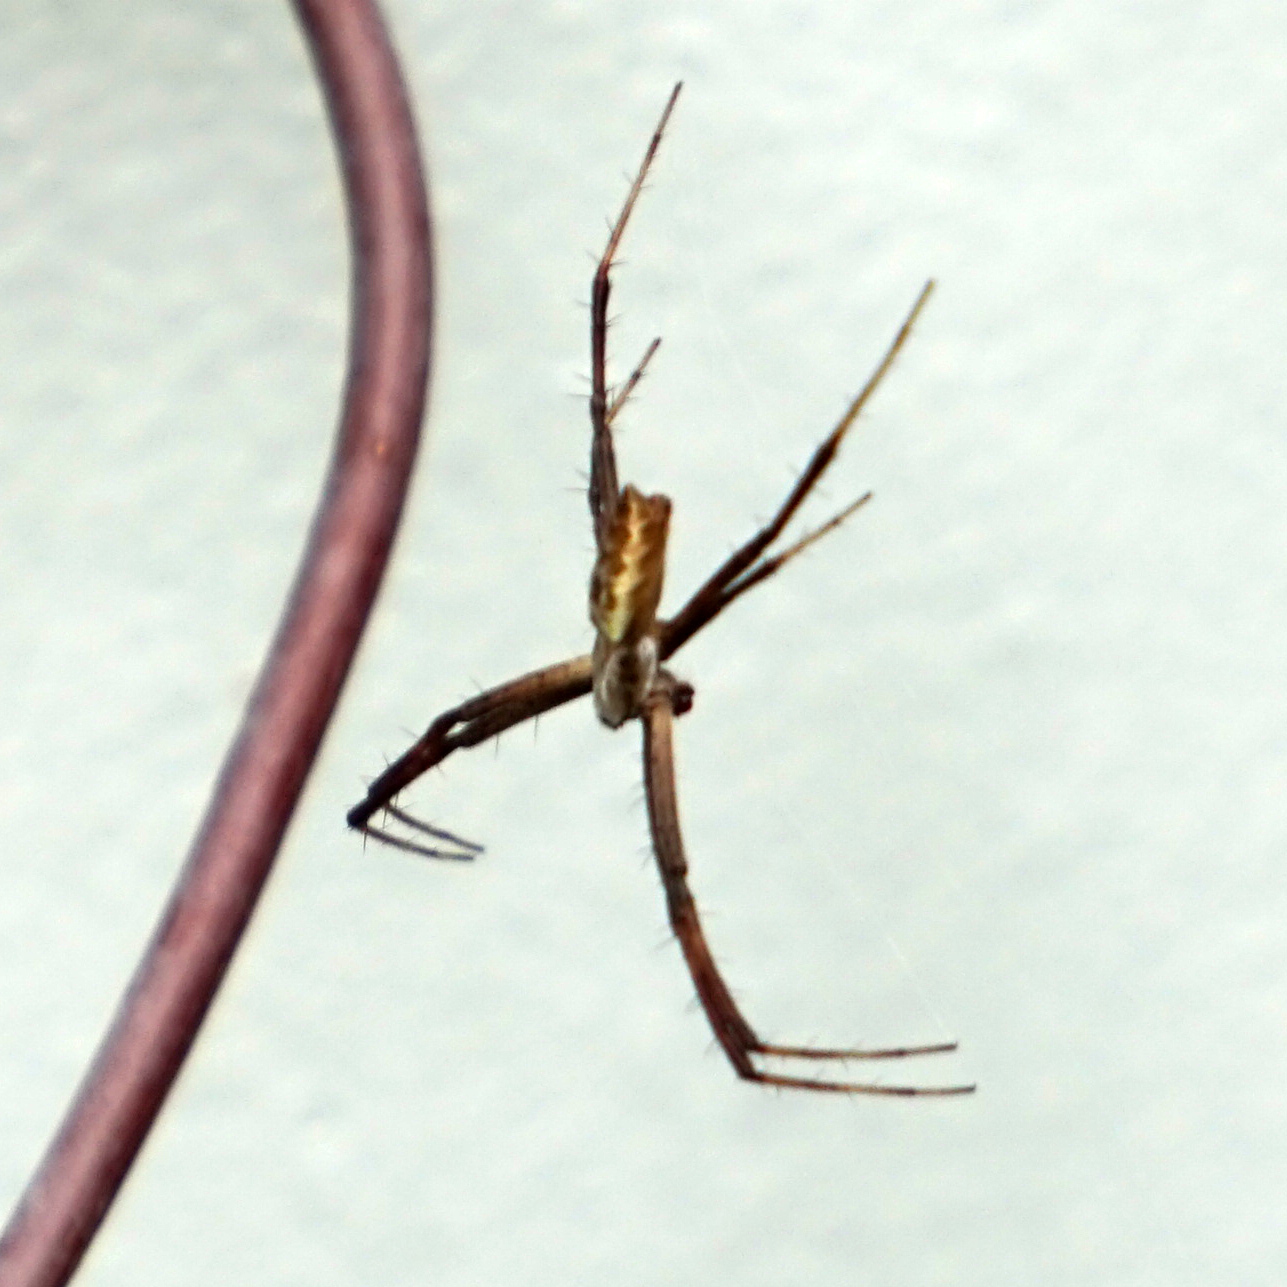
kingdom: Animalia
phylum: Arthropoda
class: Arachnida
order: Araneae
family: Araneidae
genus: Argiope
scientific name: Argiope aurantia
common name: Orb weavers
